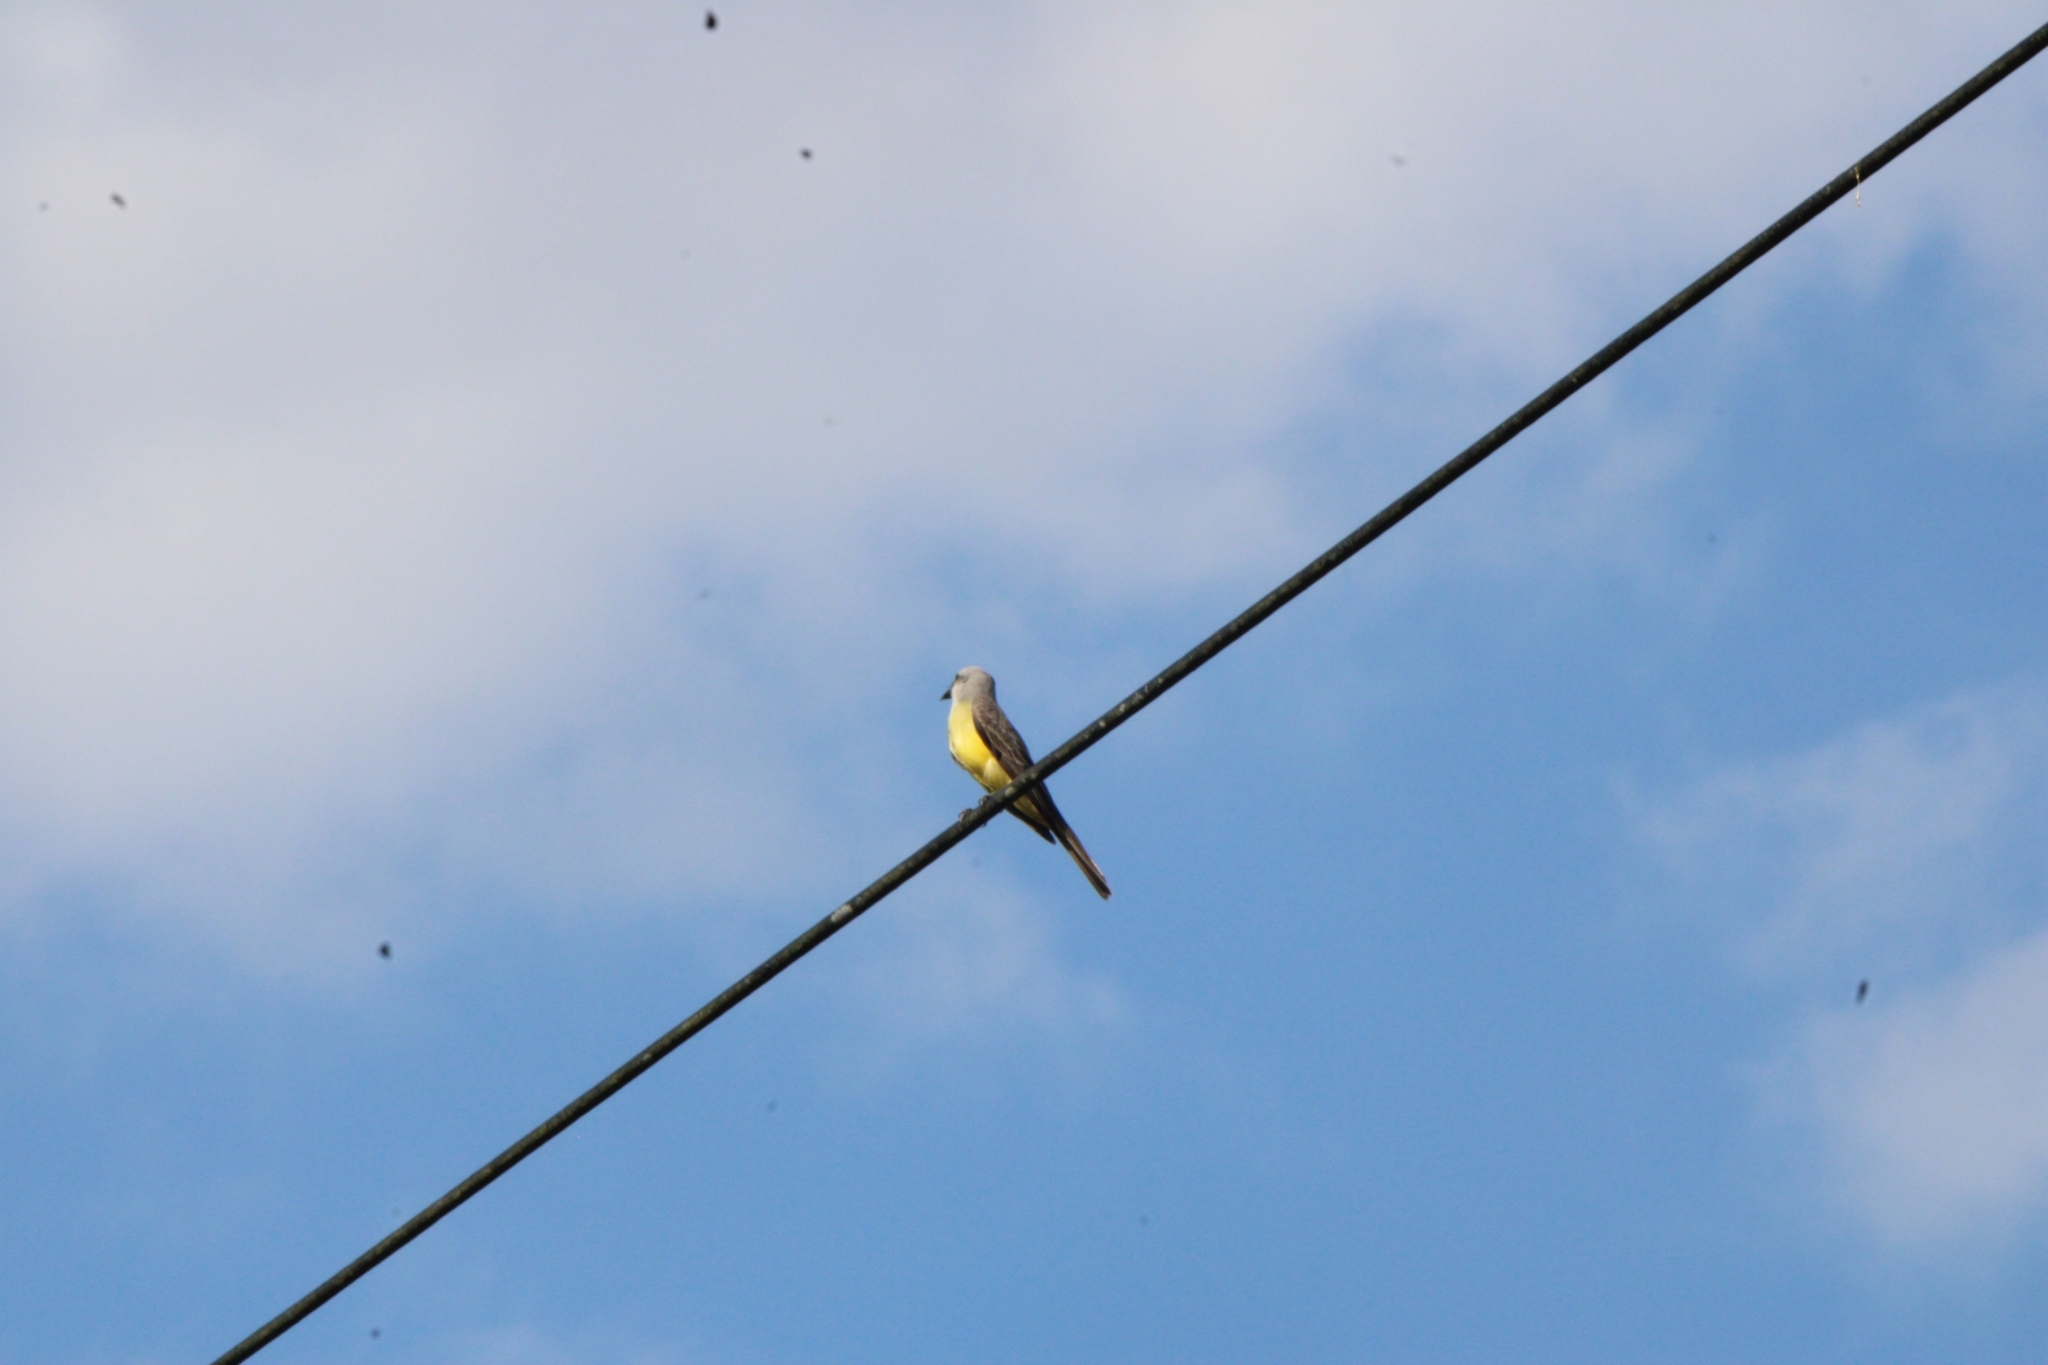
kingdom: Animalia
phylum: Chordata
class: Aves
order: Passeriformes
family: Tyrannidae
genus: Tyrannus
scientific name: Tyrannus melancholicus
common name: Tropical kingbird
